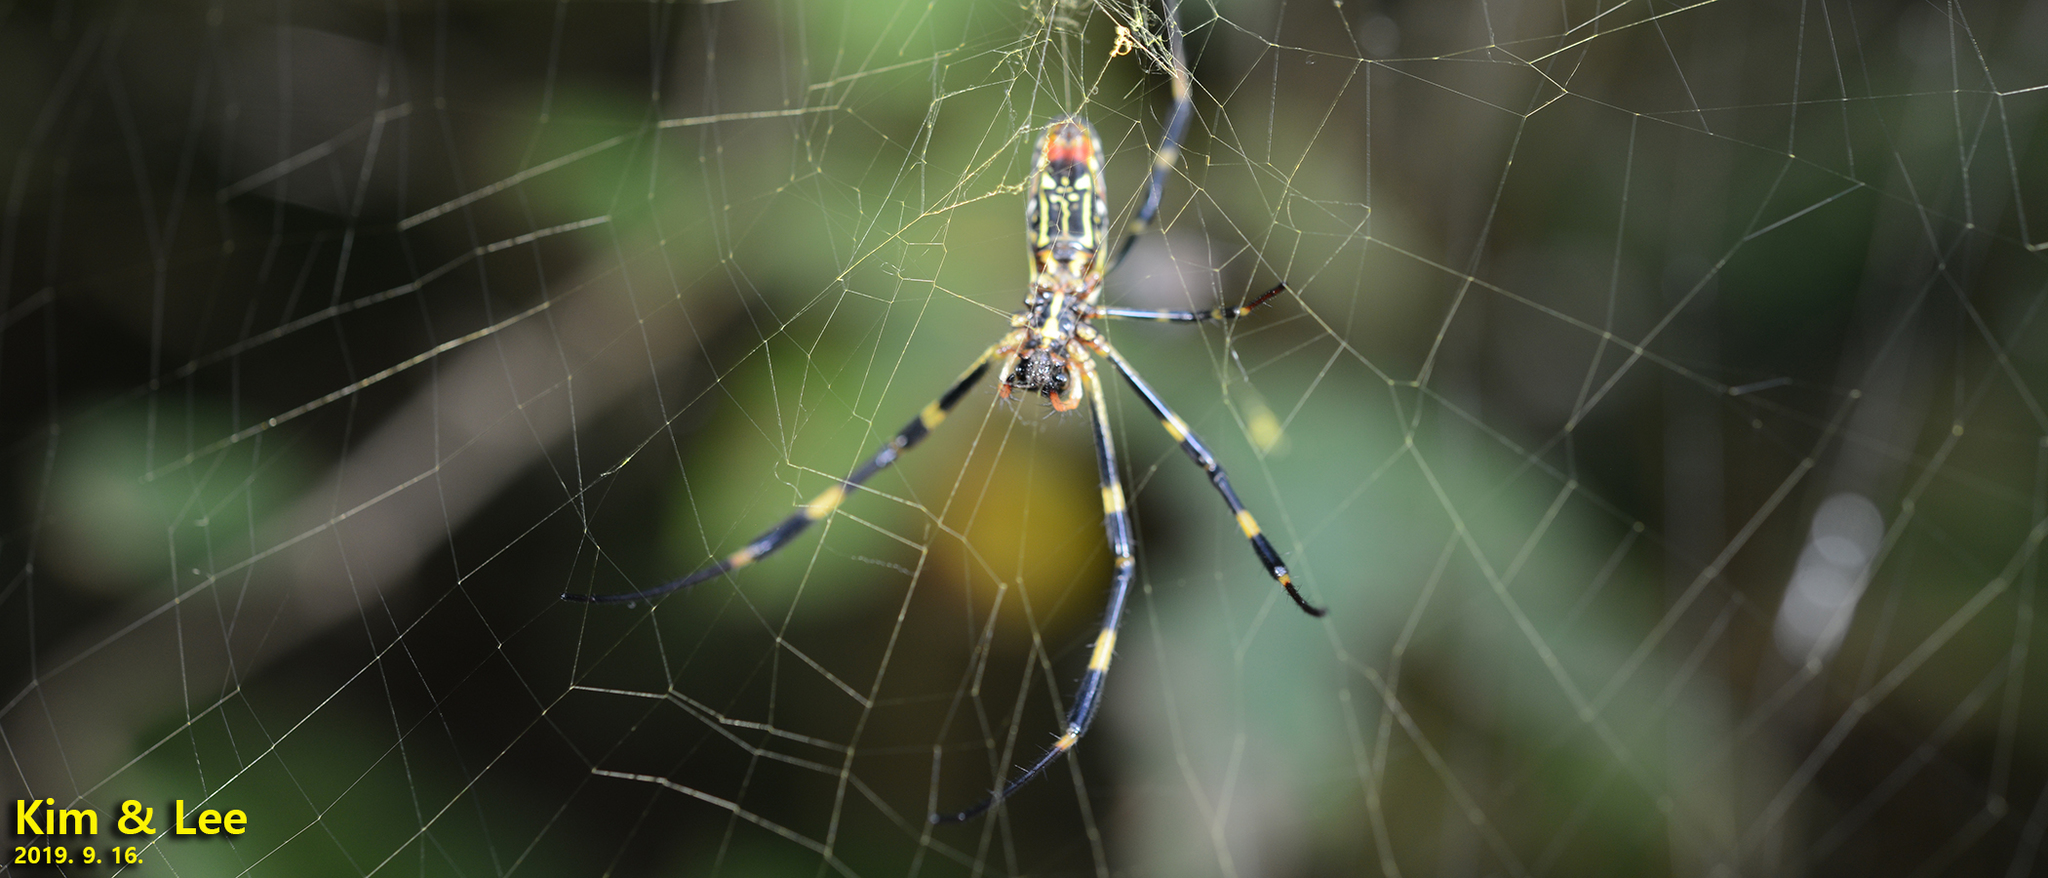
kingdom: Animalia
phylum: Arthropoda
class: Arachnida
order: Araneae
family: Araneidae
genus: Trichonephila
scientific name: Trichonephila clavata
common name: Jorō spider
